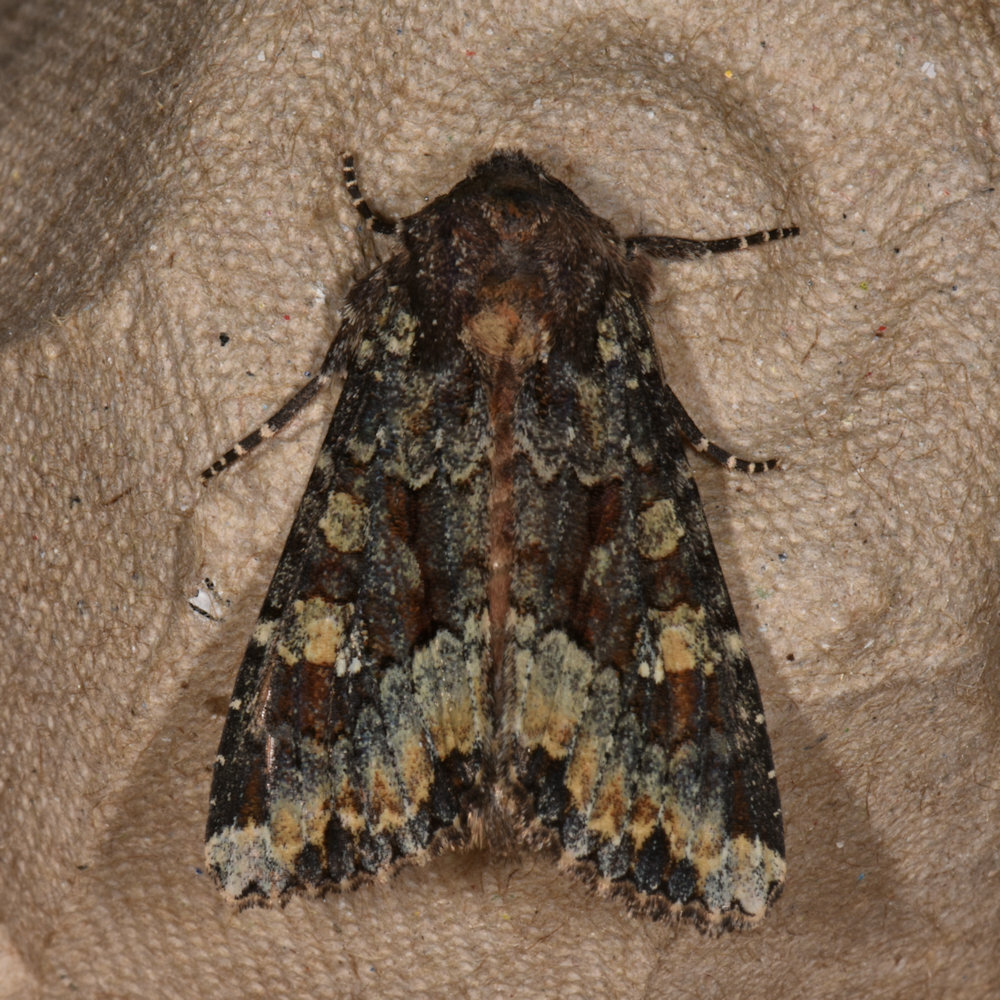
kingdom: Animalia
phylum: Arthropoda
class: Insecta
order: Lepidoptera
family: Noctuidae
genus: Apamea
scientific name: Apamea amputatrix
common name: Yellow-headed cutworm moth
